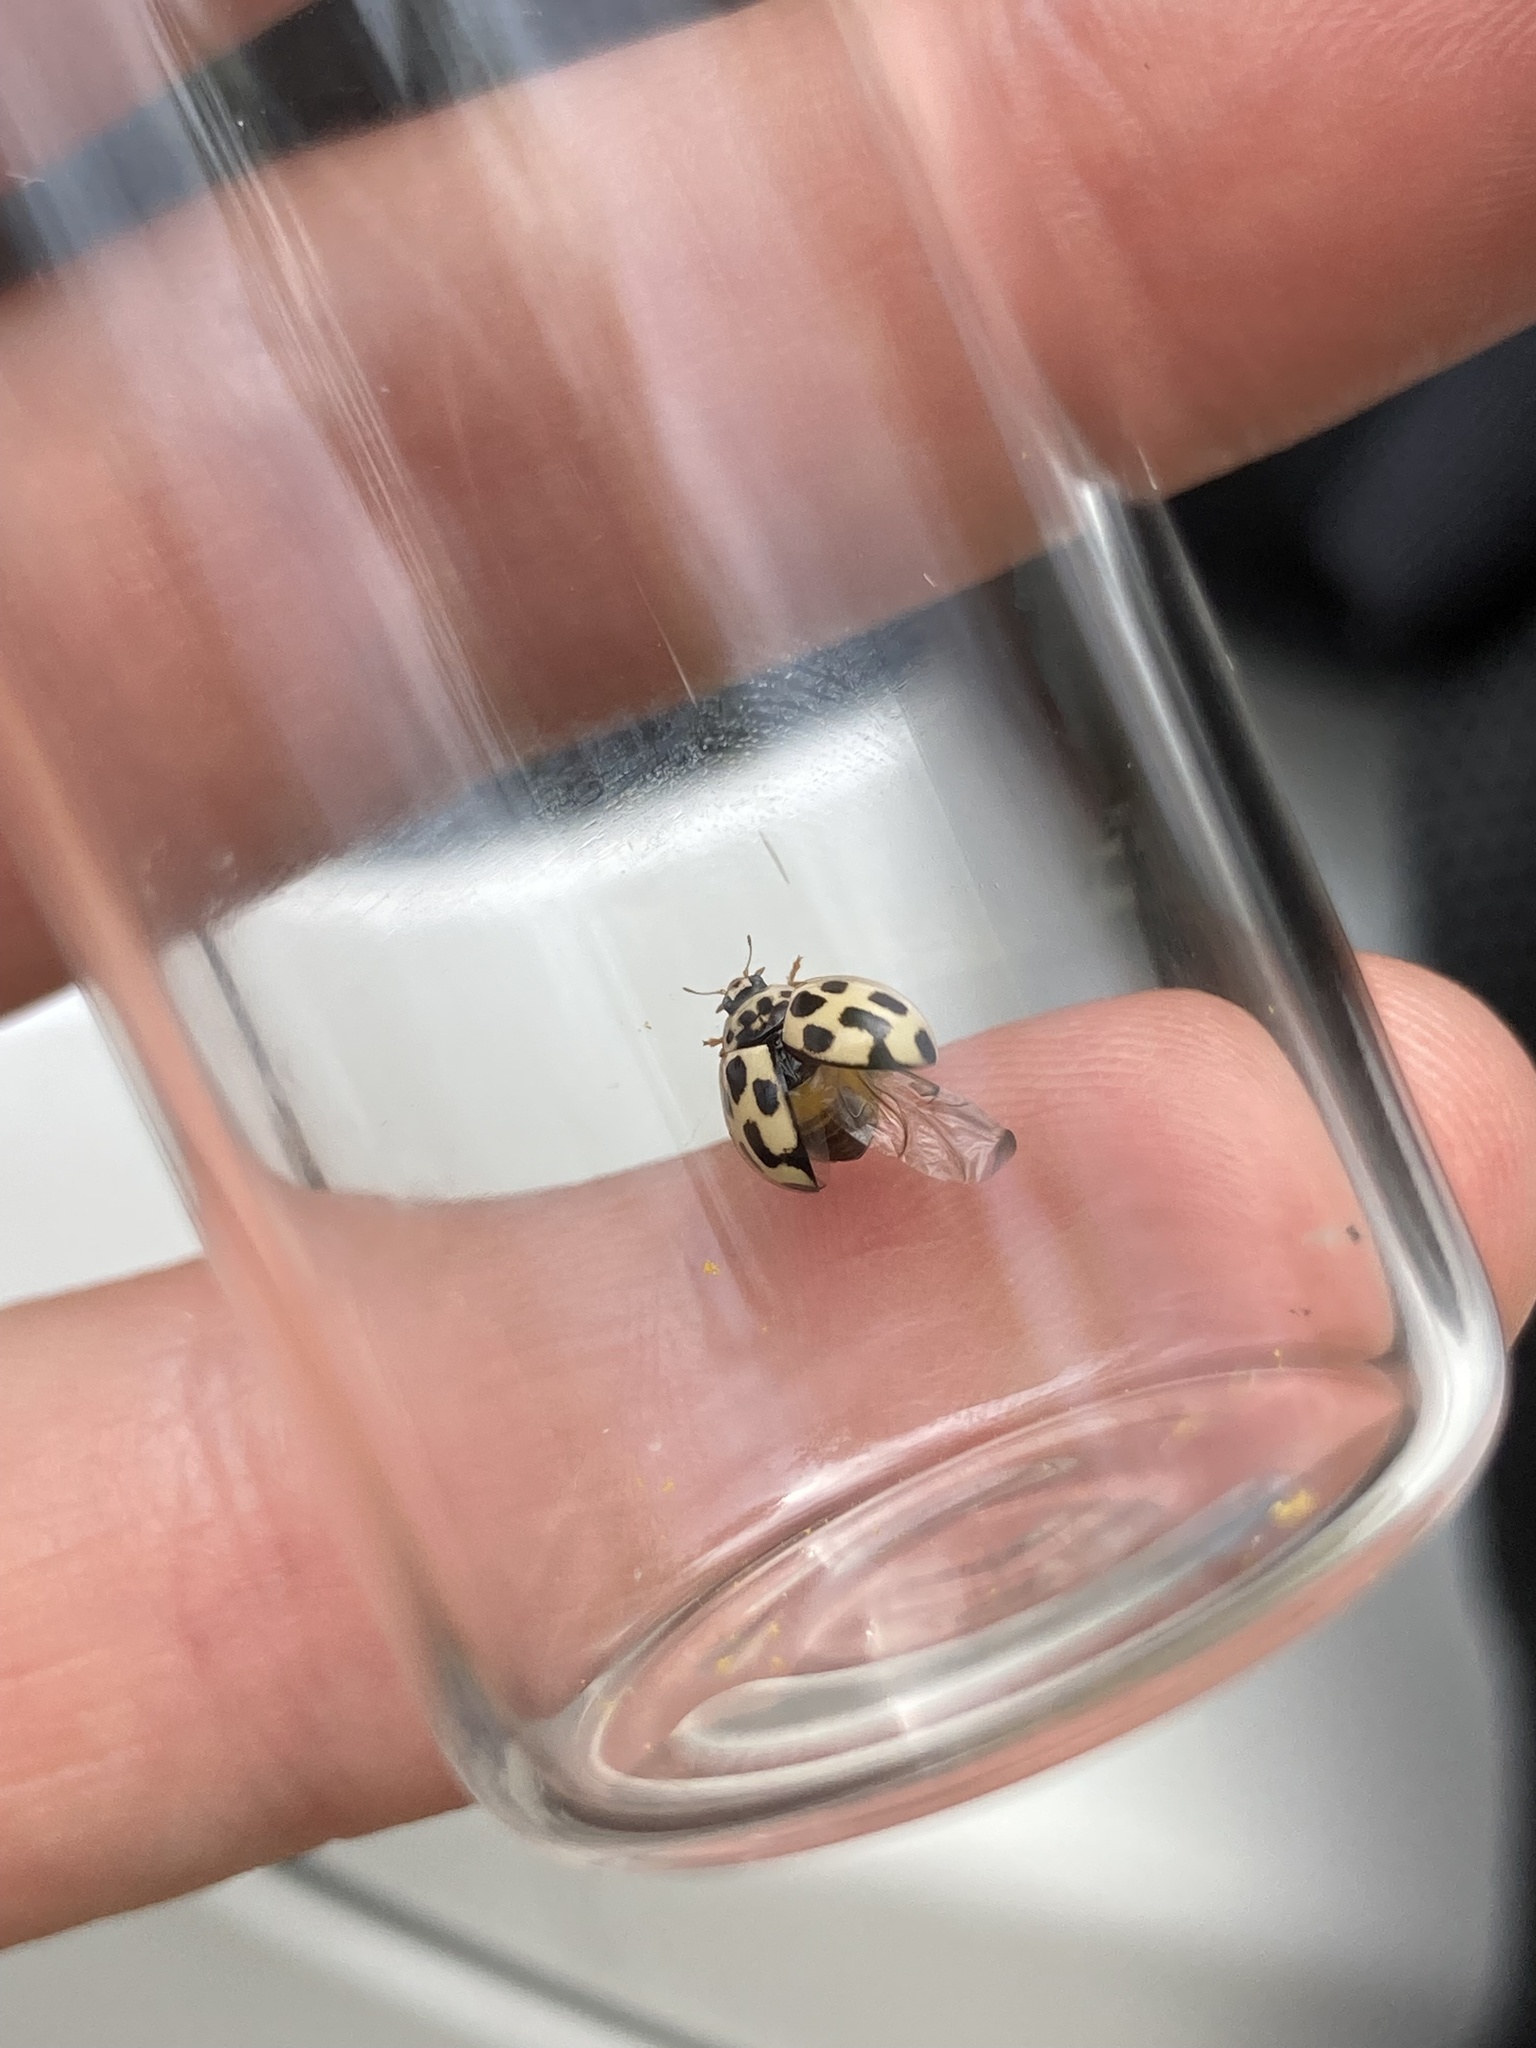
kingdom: Animalia
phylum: Arthropoda
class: Insecta
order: Coleoptera
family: Coccinellidae
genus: Propylaea
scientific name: Propylaea quatuordecimpunctata
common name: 14-spotted ladybird beetle
